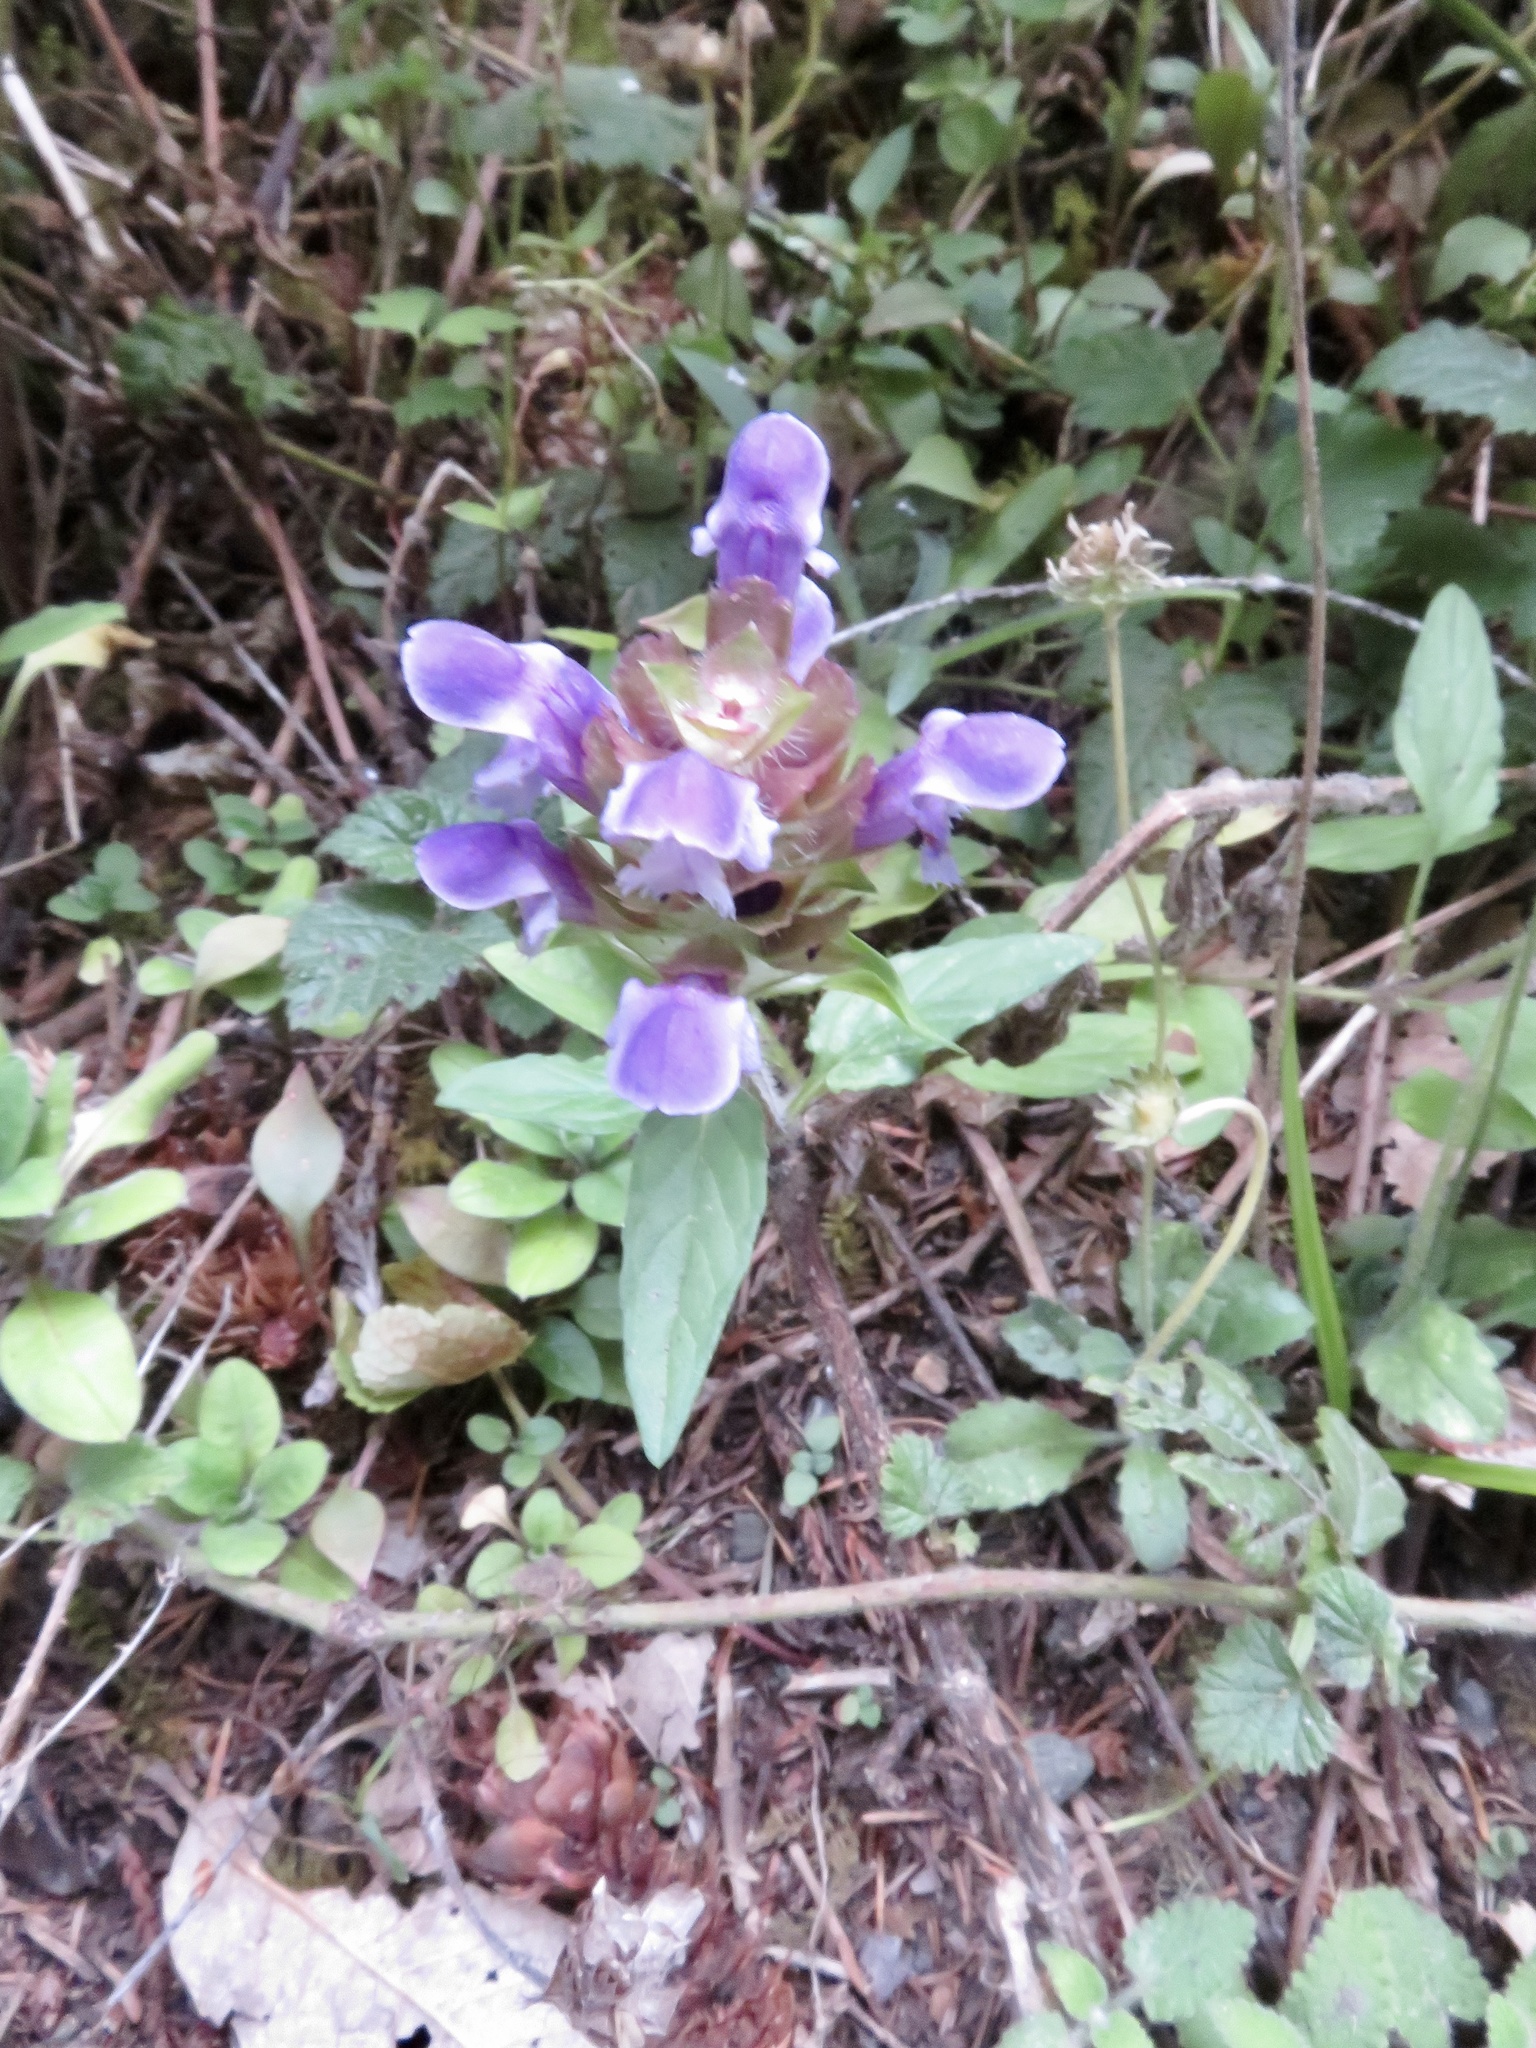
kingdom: Plantae
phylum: Tracheophyta
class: Magnoliopsida
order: Lamiales
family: Lamiaceae
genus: Prunella
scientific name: Prunella vulgaris
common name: Heal-all
